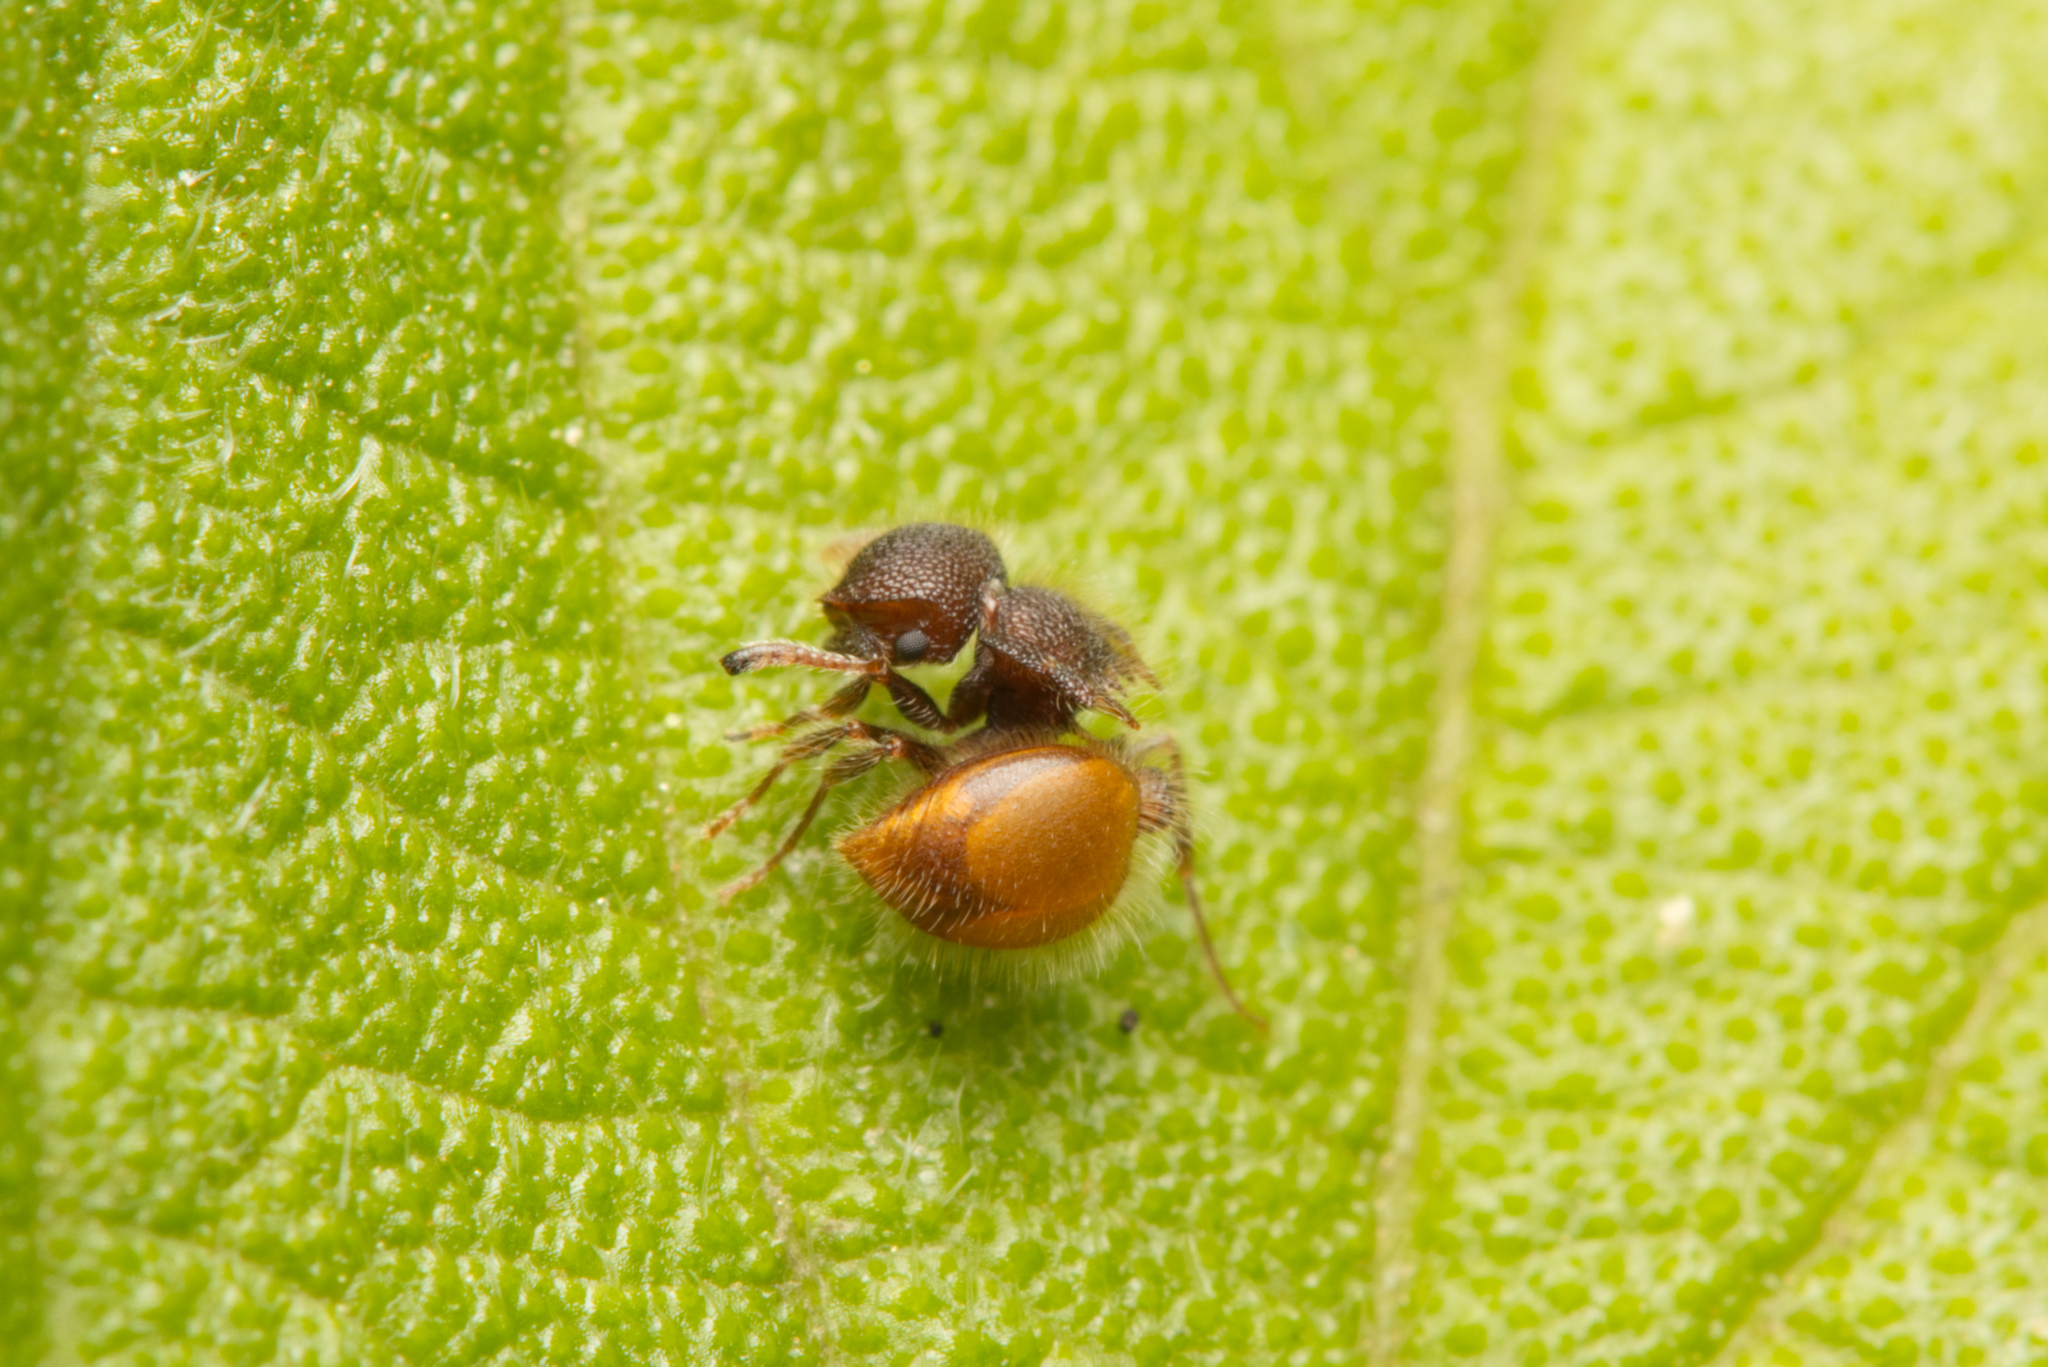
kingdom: Animalia
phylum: Arthropoda
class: Insecta
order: Hymenoptera
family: Formicidae
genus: Meranoplus
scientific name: Meranoplus hirsutus
